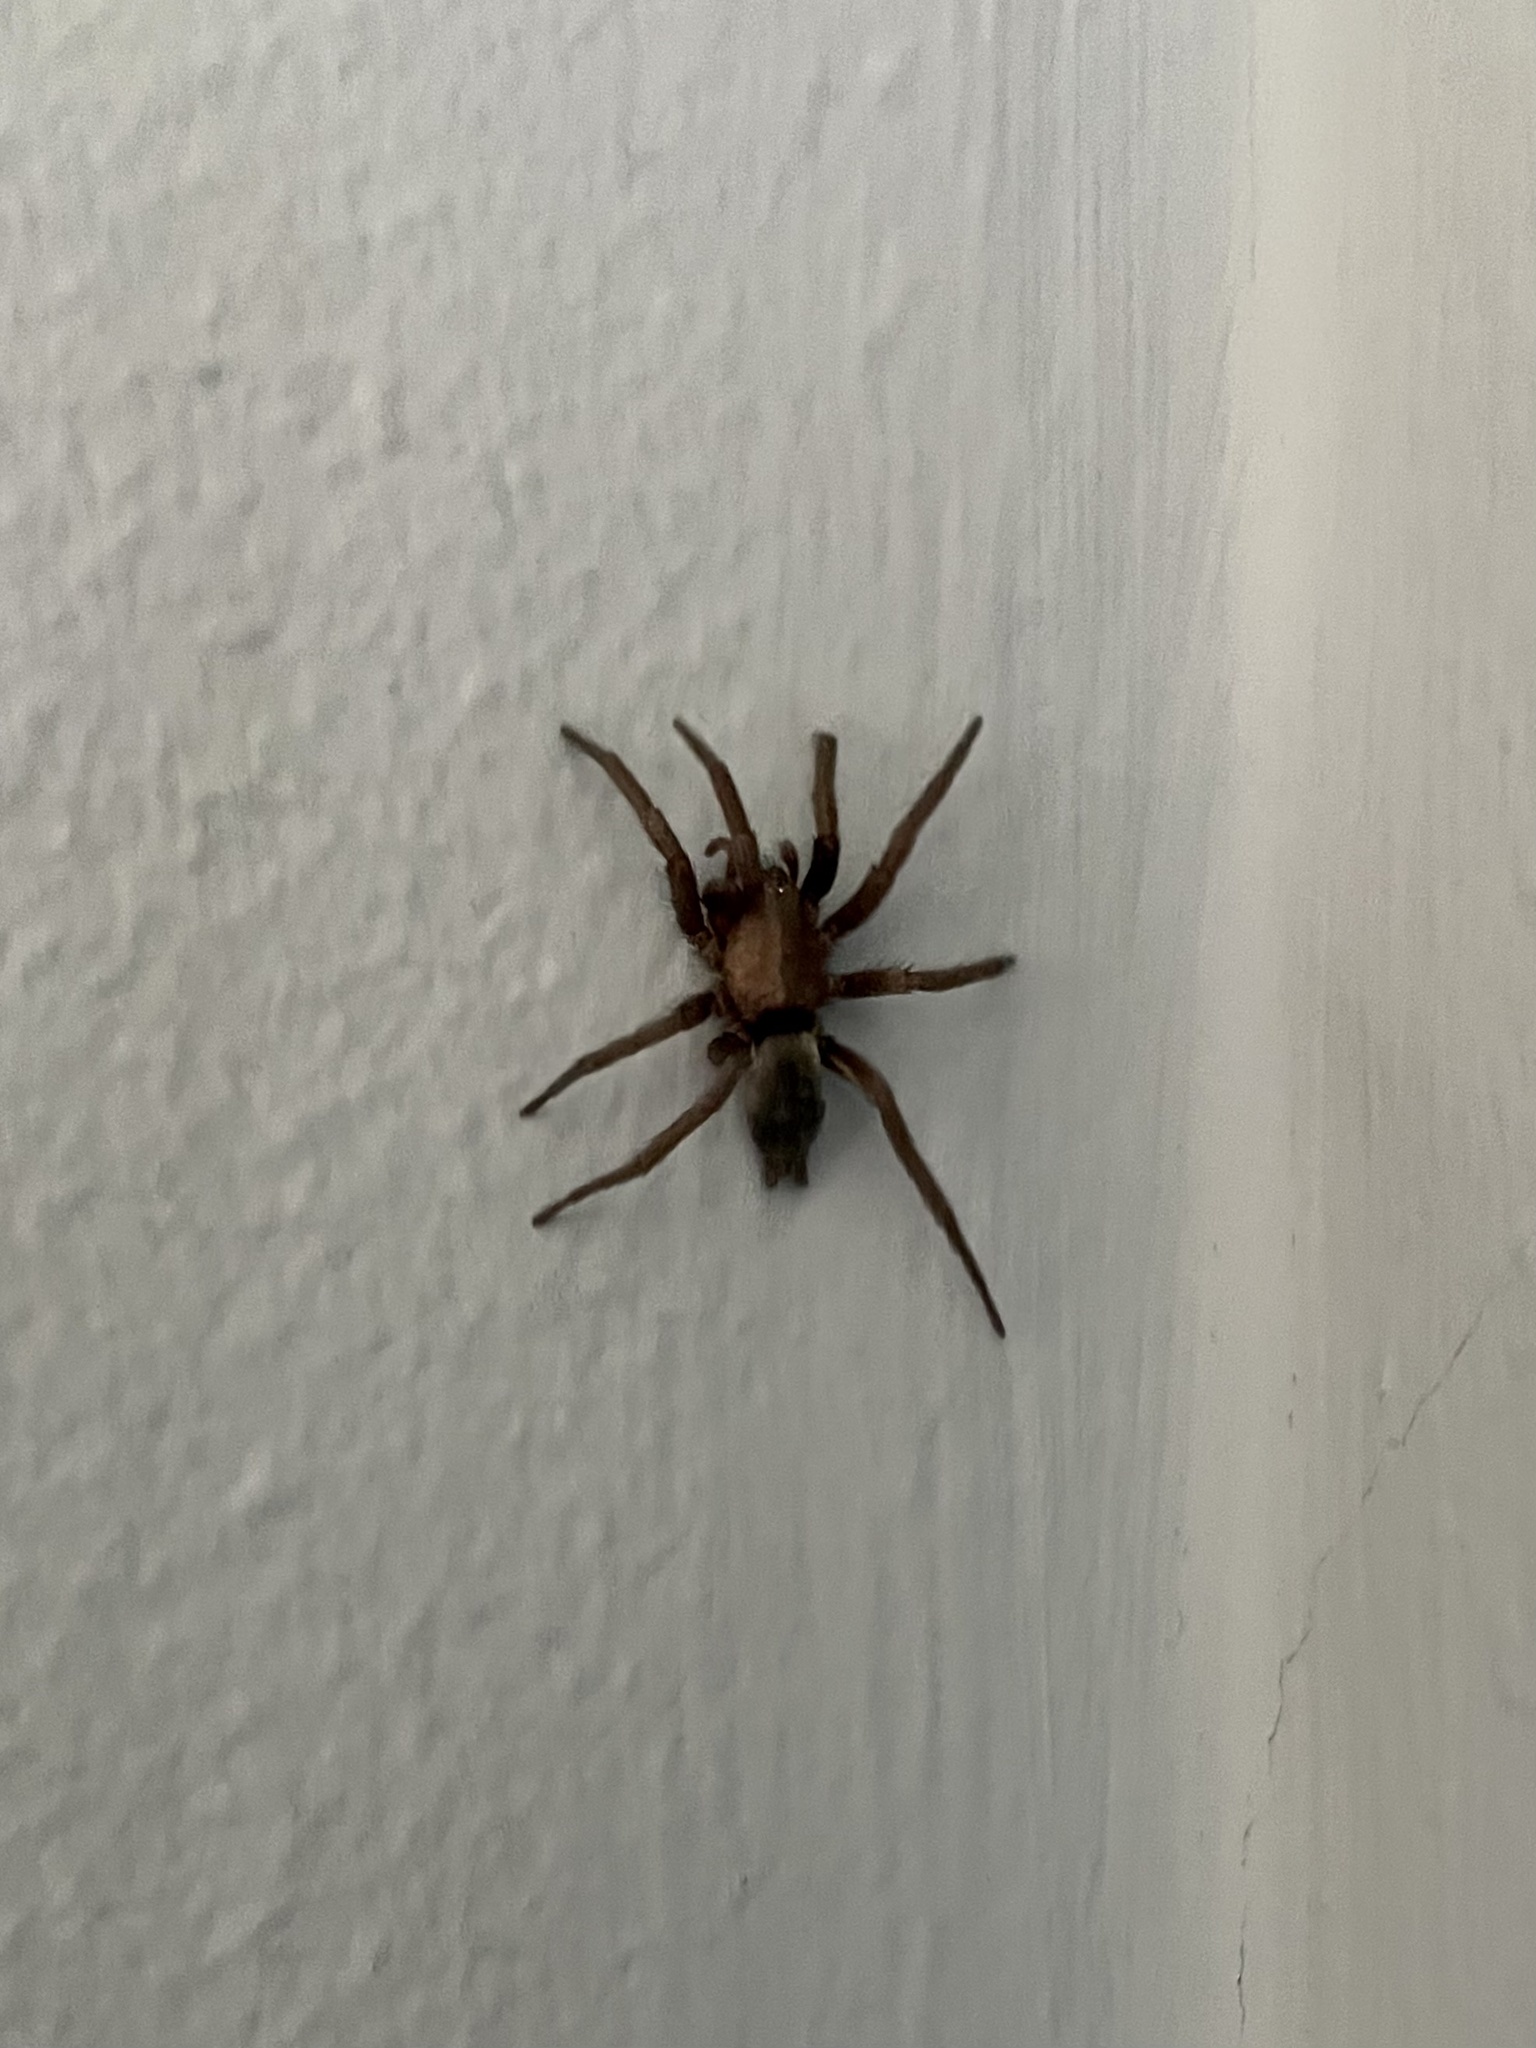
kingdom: Animalia
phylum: Arthropoda
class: Arachnida
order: Araneae
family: Gnaphosidae
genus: Scotophaeus
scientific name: Scotophaeus blackwalli
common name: Mouse spider
